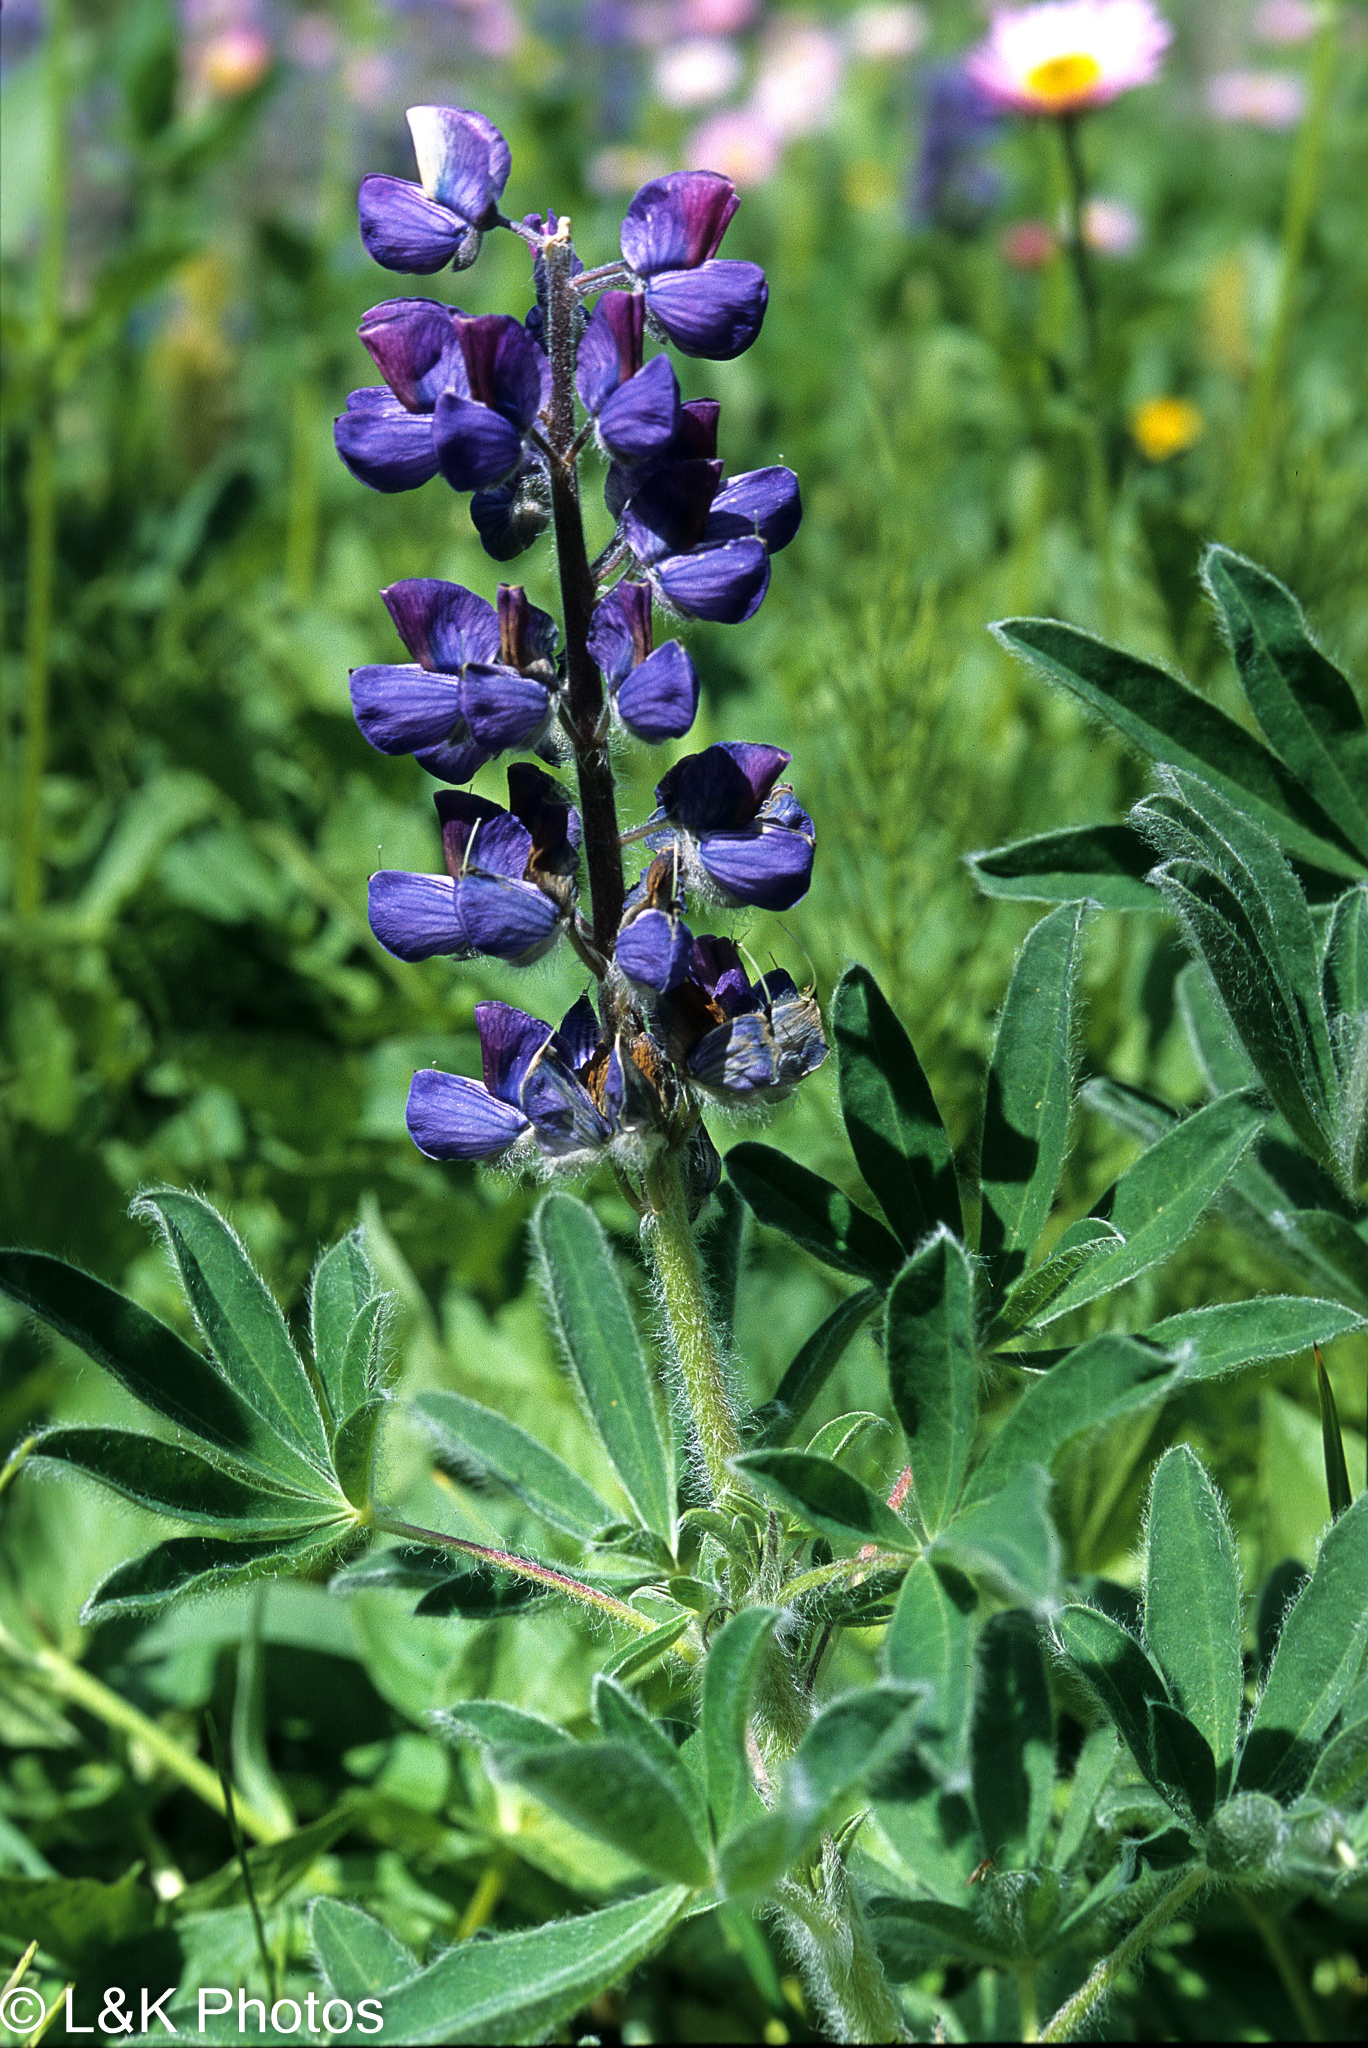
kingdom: Plantae
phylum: Tracheophyta
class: Magnoliopsida
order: Fabales
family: Fabaceae
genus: Lupinus
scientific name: Lupinus nootkatensis
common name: Nootka lupine
